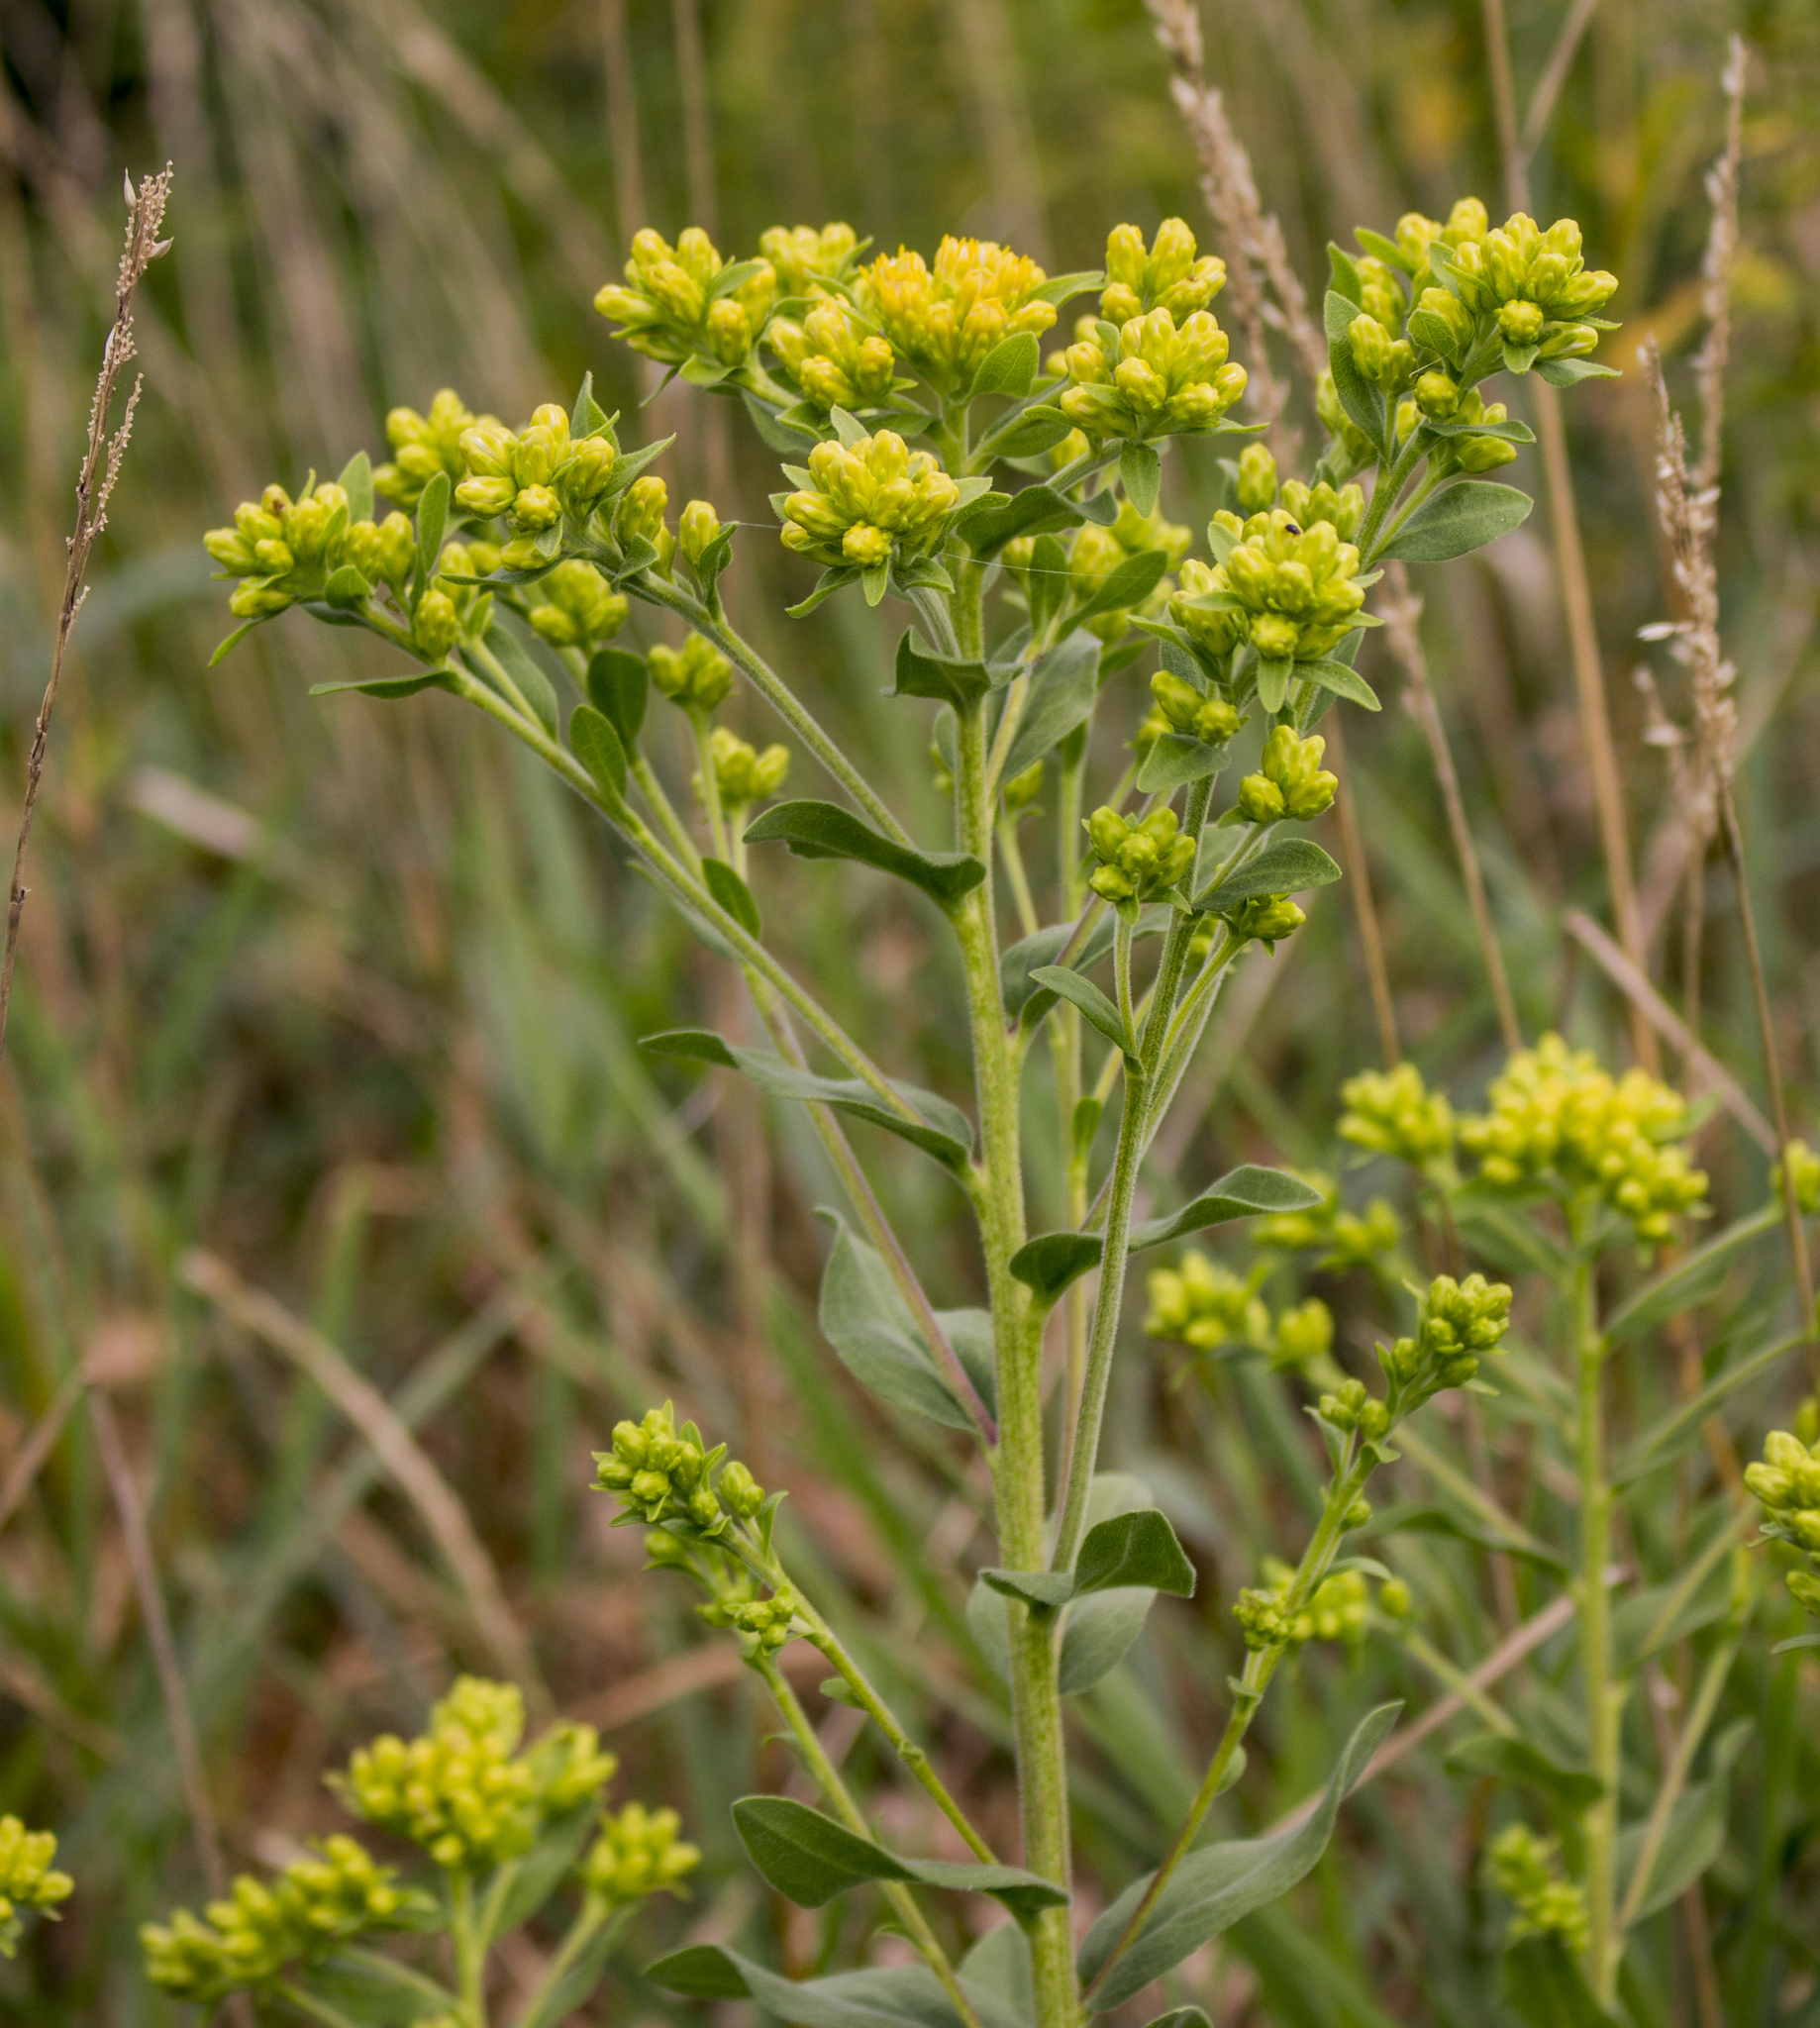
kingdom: Plantae
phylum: Tracheophyta
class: Magnoliopsida
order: Asterales
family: Asteraceae
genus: Solidago
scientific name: Solidago rigida
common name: Rigid goldenrod
